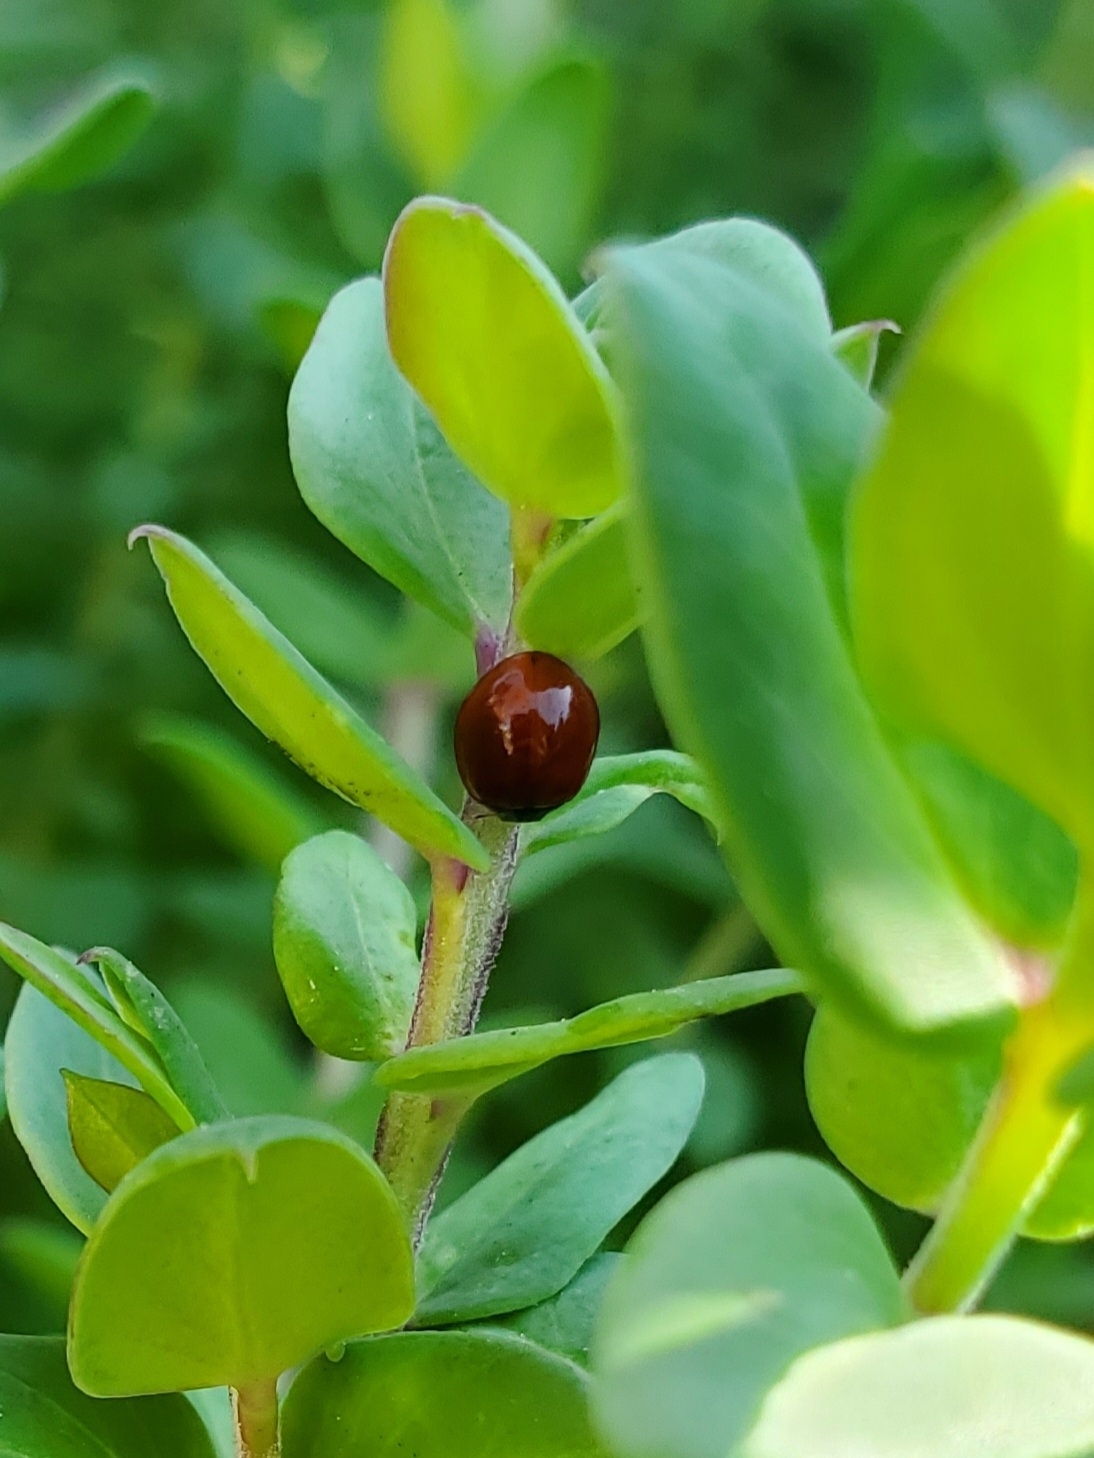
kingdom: Animalia
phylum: Arthropoda
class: Insecta
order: Coleoptera
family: Coccinellidae
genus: Cycloneda
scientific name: Cycloneda
